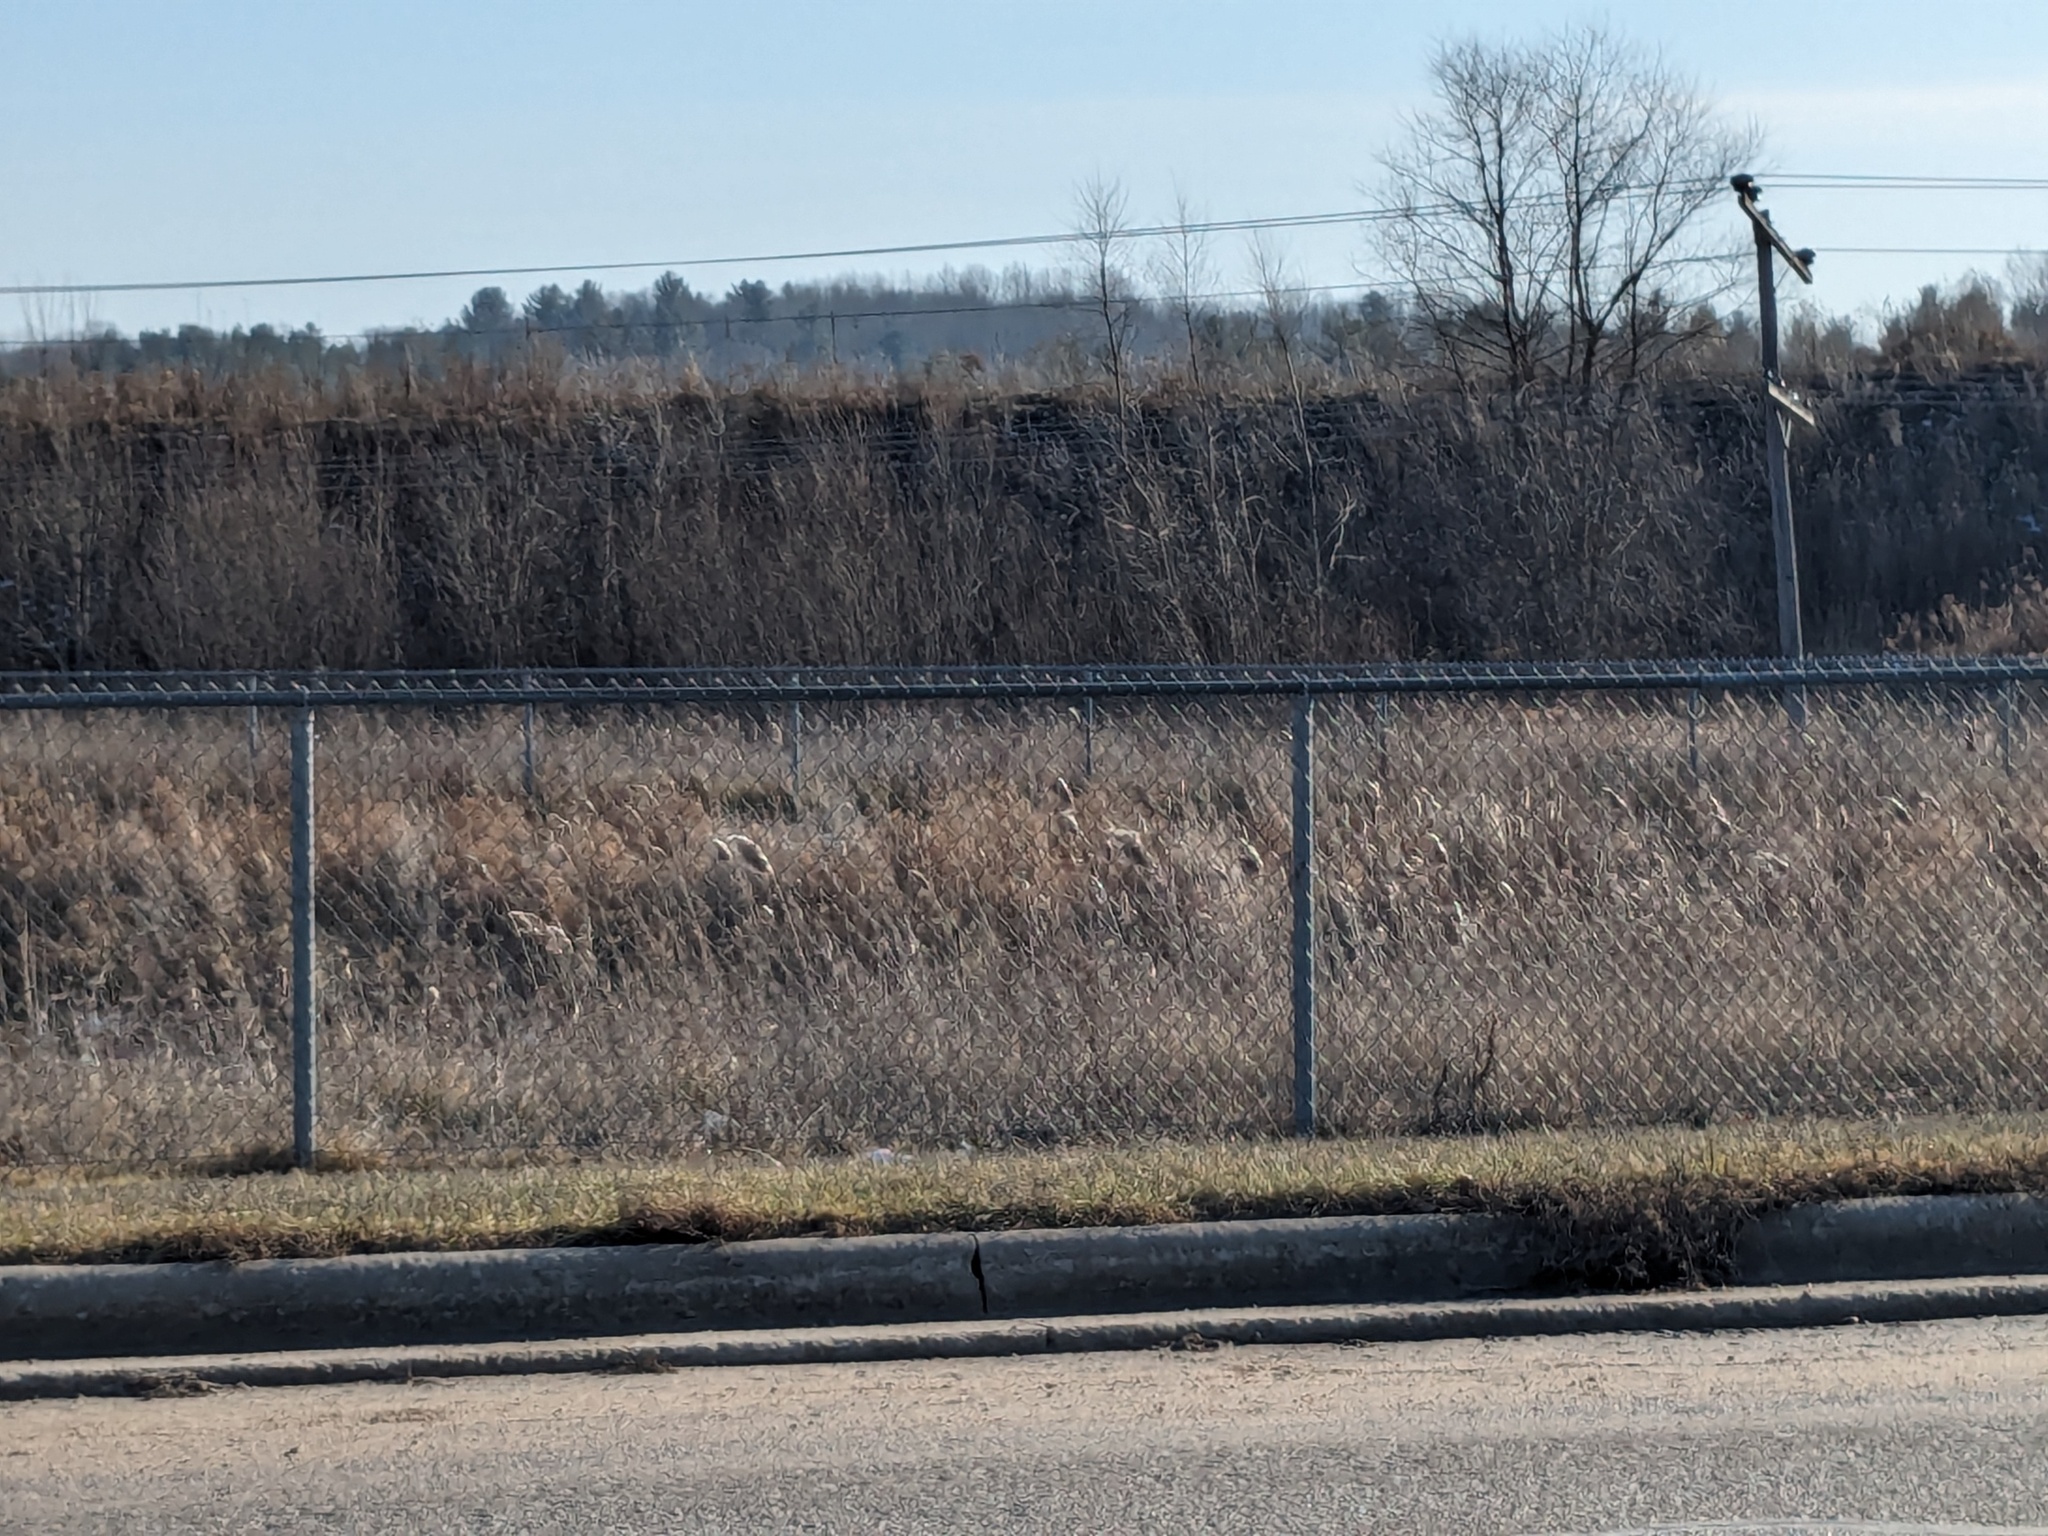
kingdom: Plantae
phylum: Tracheophyta
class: Liliopsida
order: Poales
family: Poaceae
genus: Phragmites
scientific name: Phragmites australis
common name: Common reed
